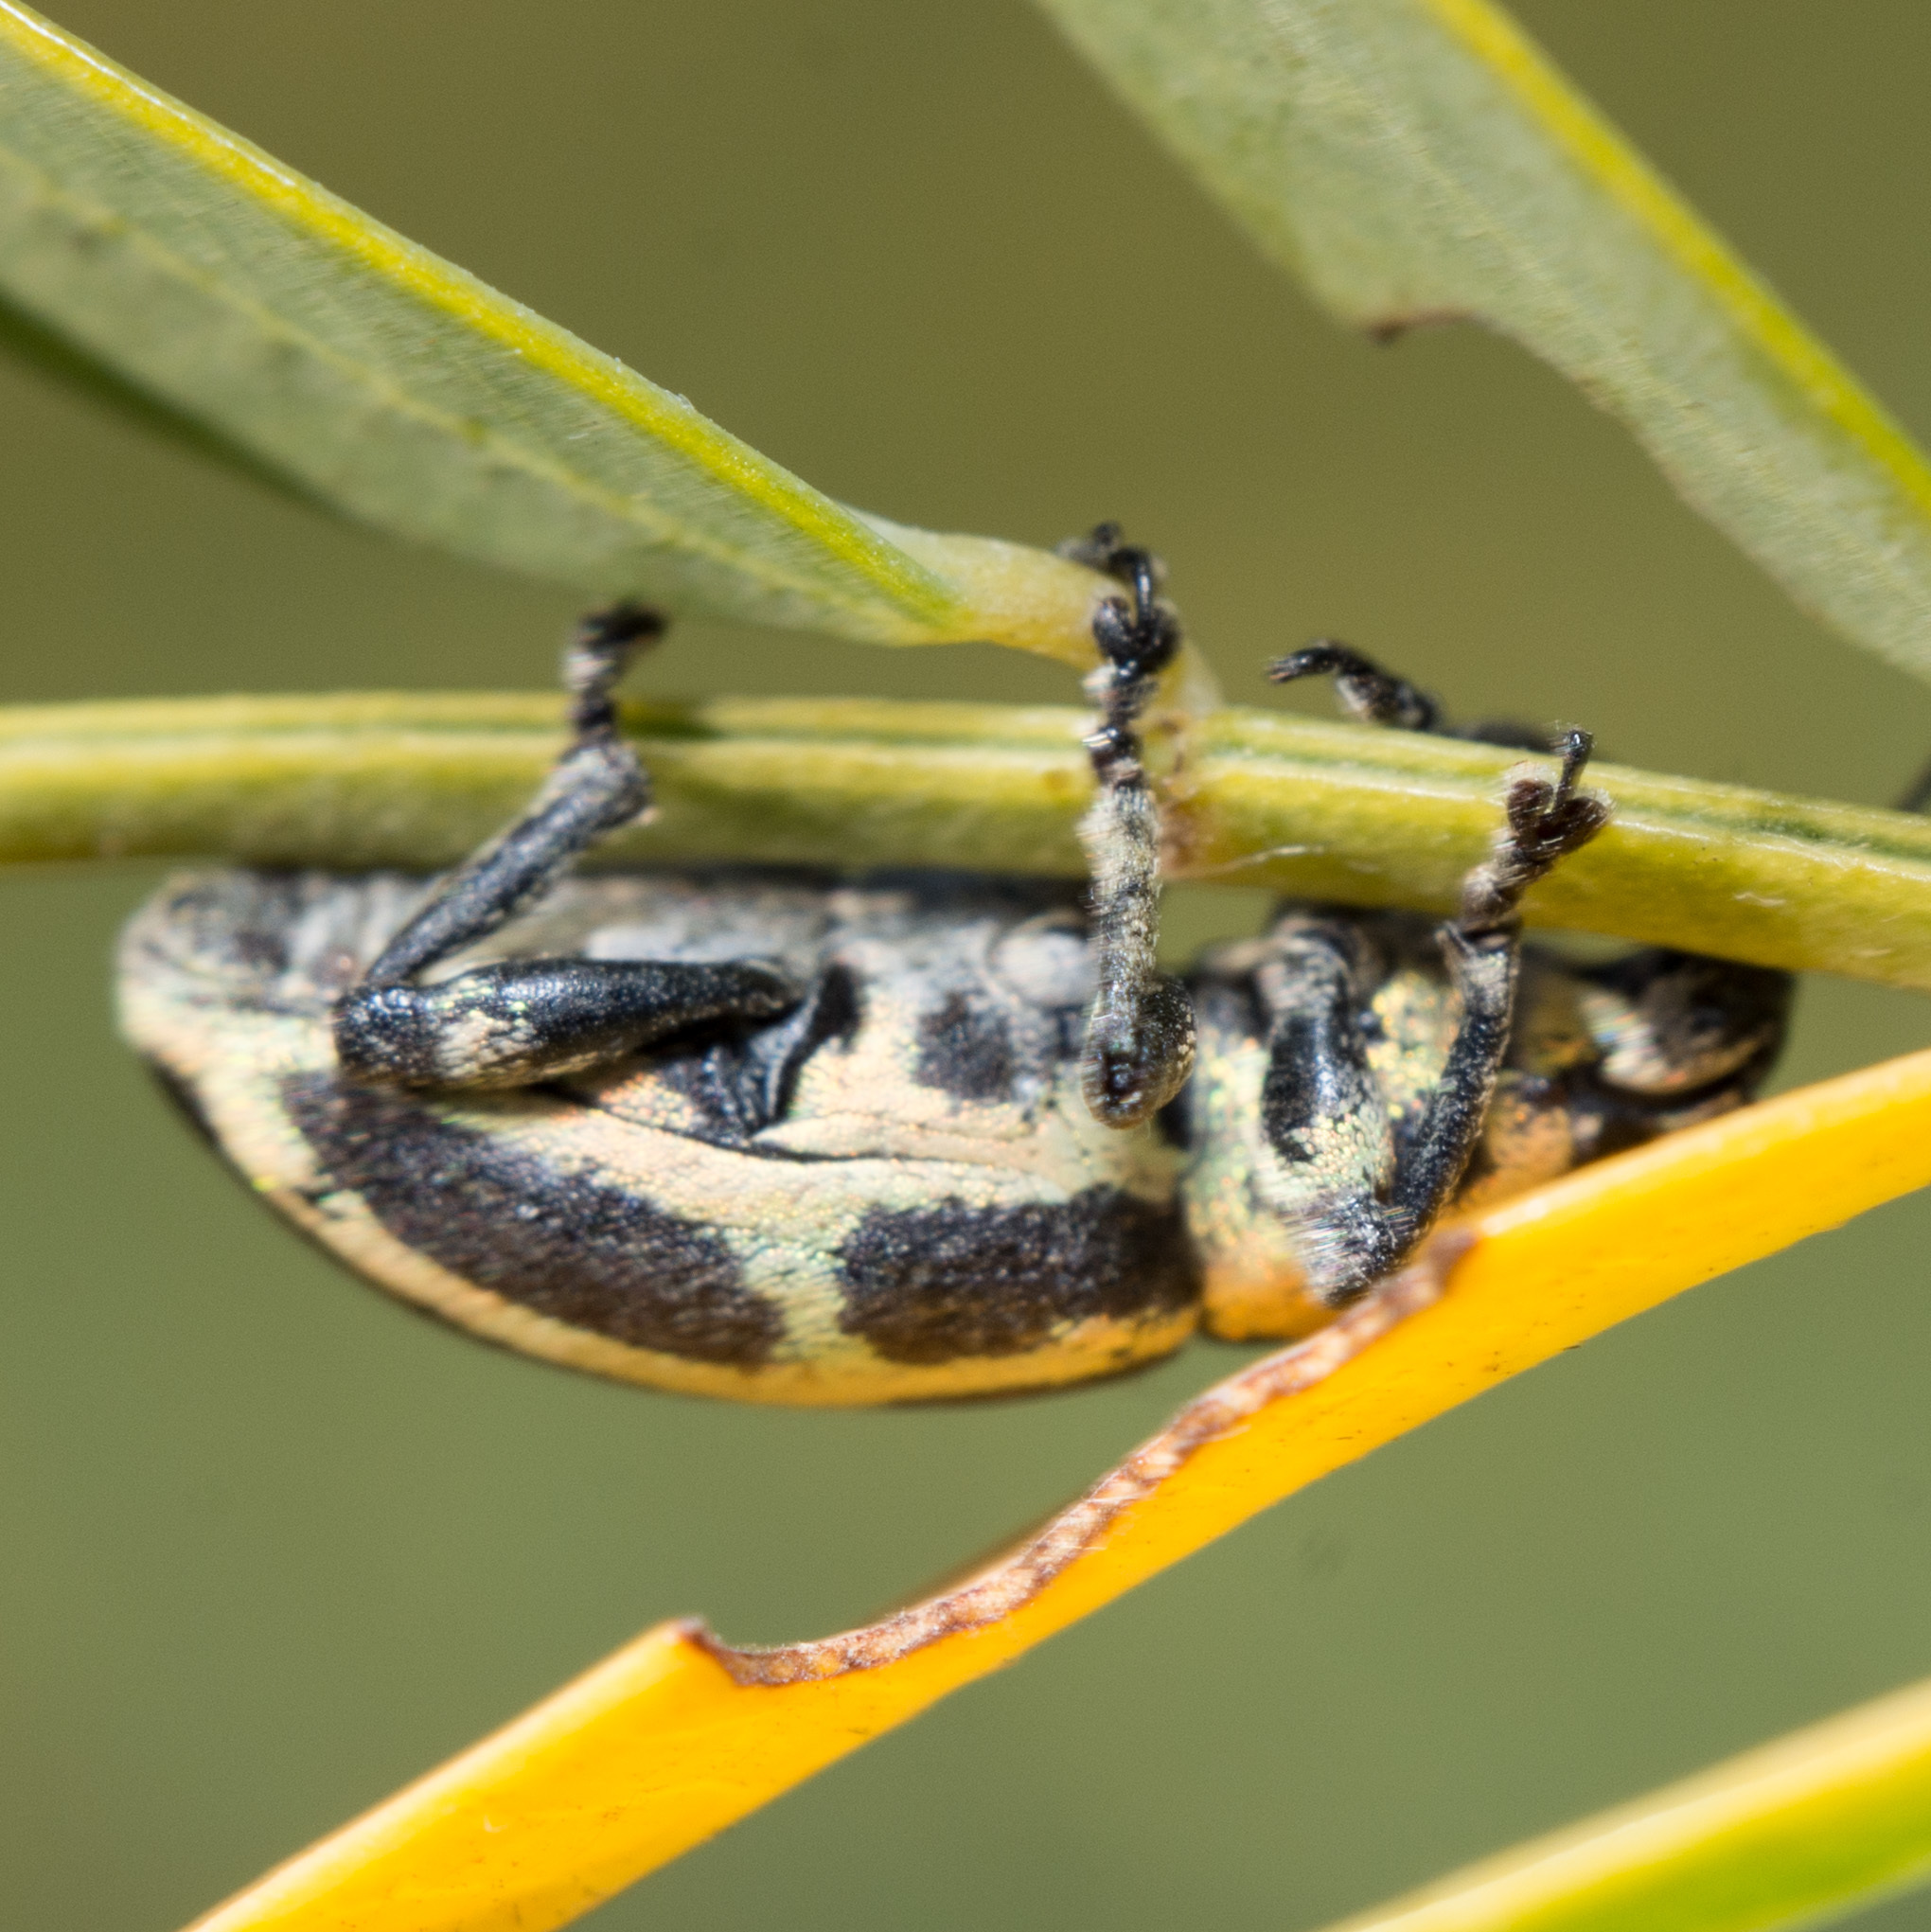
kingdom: Animalia
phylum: Arthropoda
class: Insecta
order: Coleoptera
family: Curculionidae
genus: Eudiagogus
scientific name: Eudiagogus pulcher
